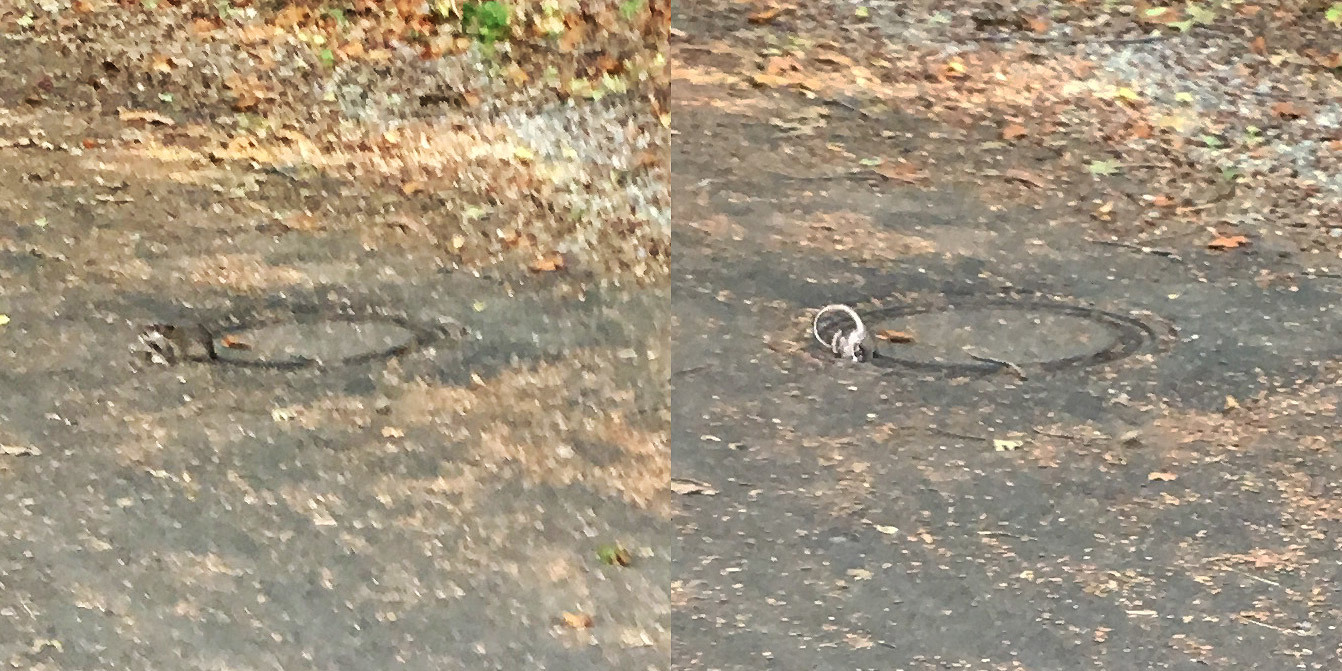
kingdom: Animalia
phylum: Chordata
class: Mammalia
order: Rodentia
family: Muridae
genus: Rattus
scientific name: Rattus norvegicus
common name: Brown rat
